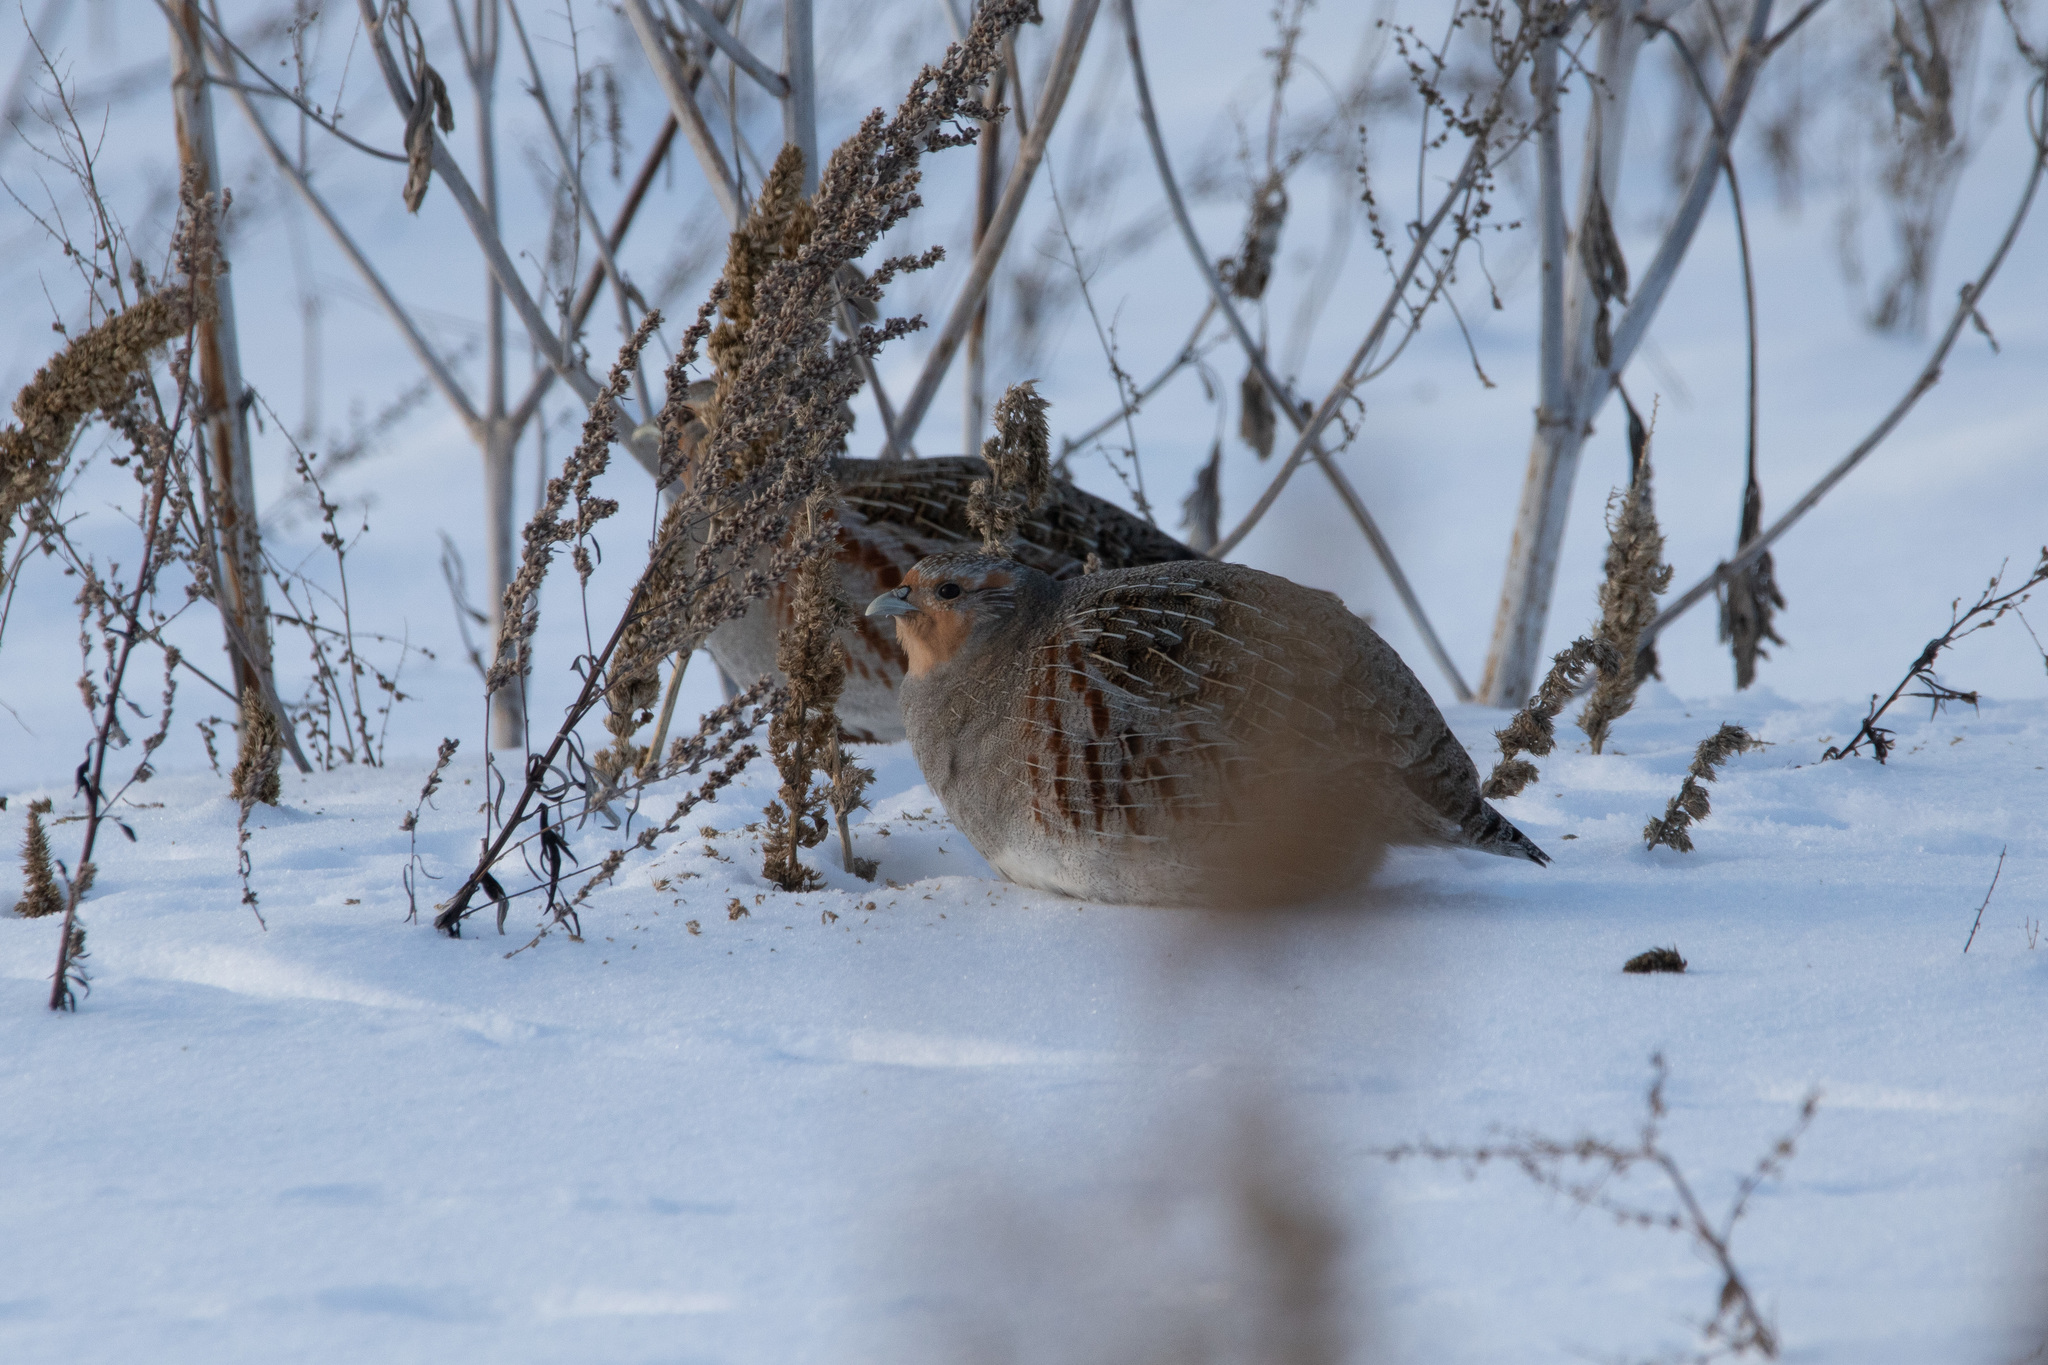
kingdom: Animalia
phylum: Chordata
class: Aves
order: Galliformes
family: Phasianidae
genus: Perdix
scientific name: Perdix perdix
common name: Grey partridge
